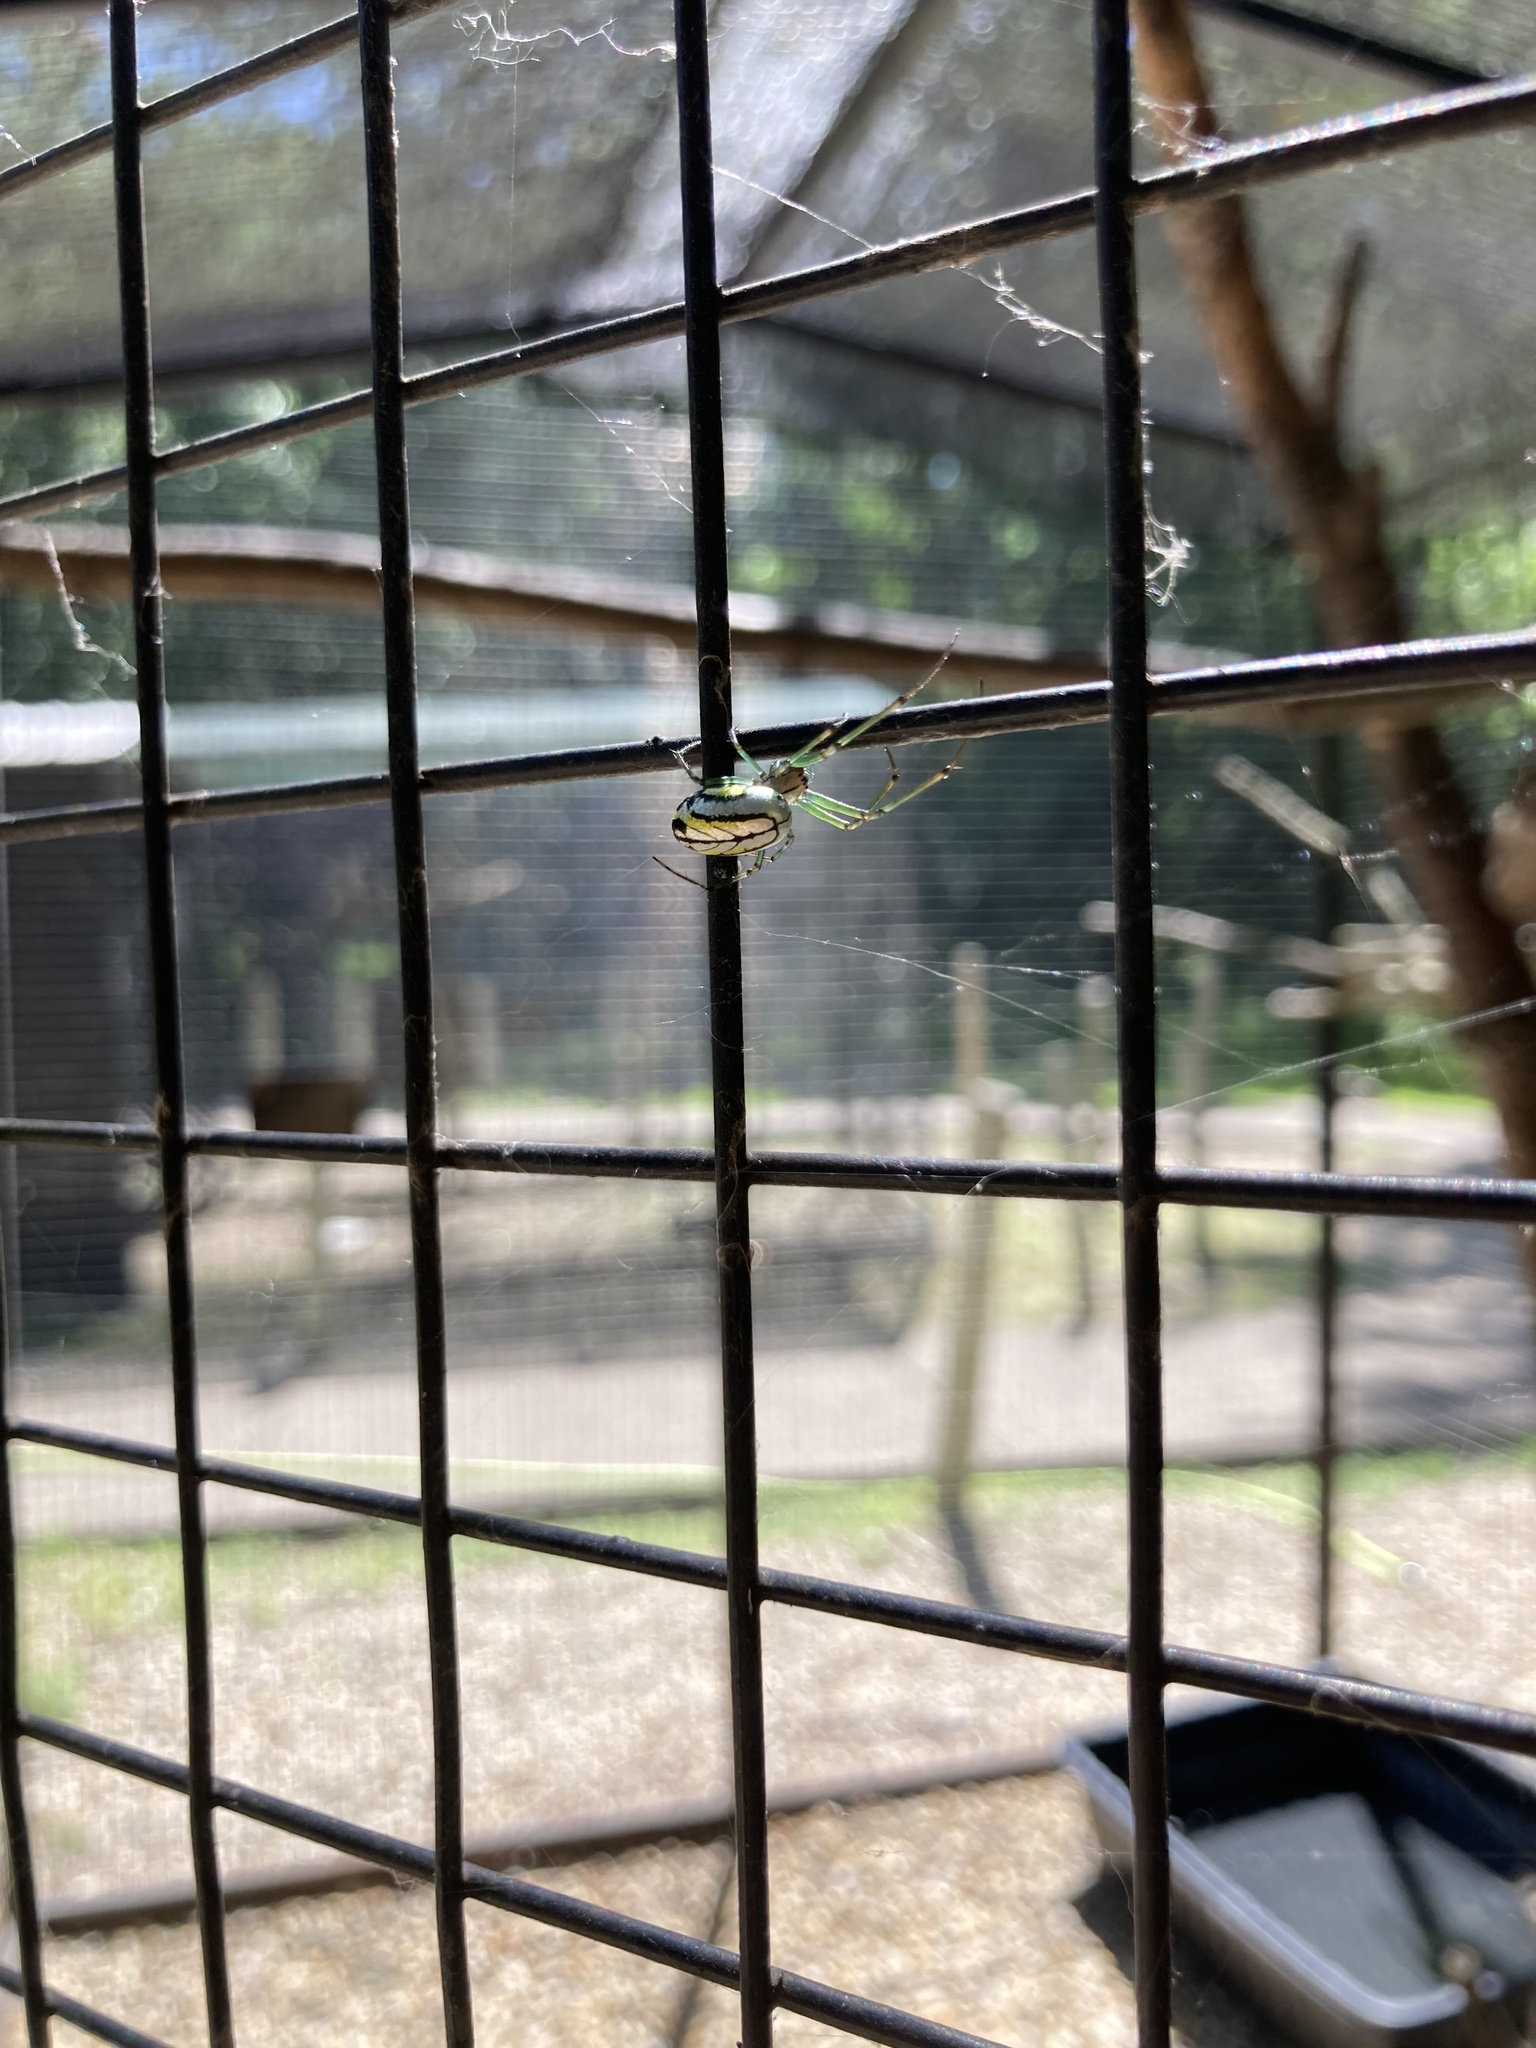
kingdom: Animalia
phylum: Arthropoda
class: Arachnida
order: Araneae
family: Tetragnathidae
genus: Leucauge
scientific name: Leucauge venusta
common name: Longjawed orb weavers
